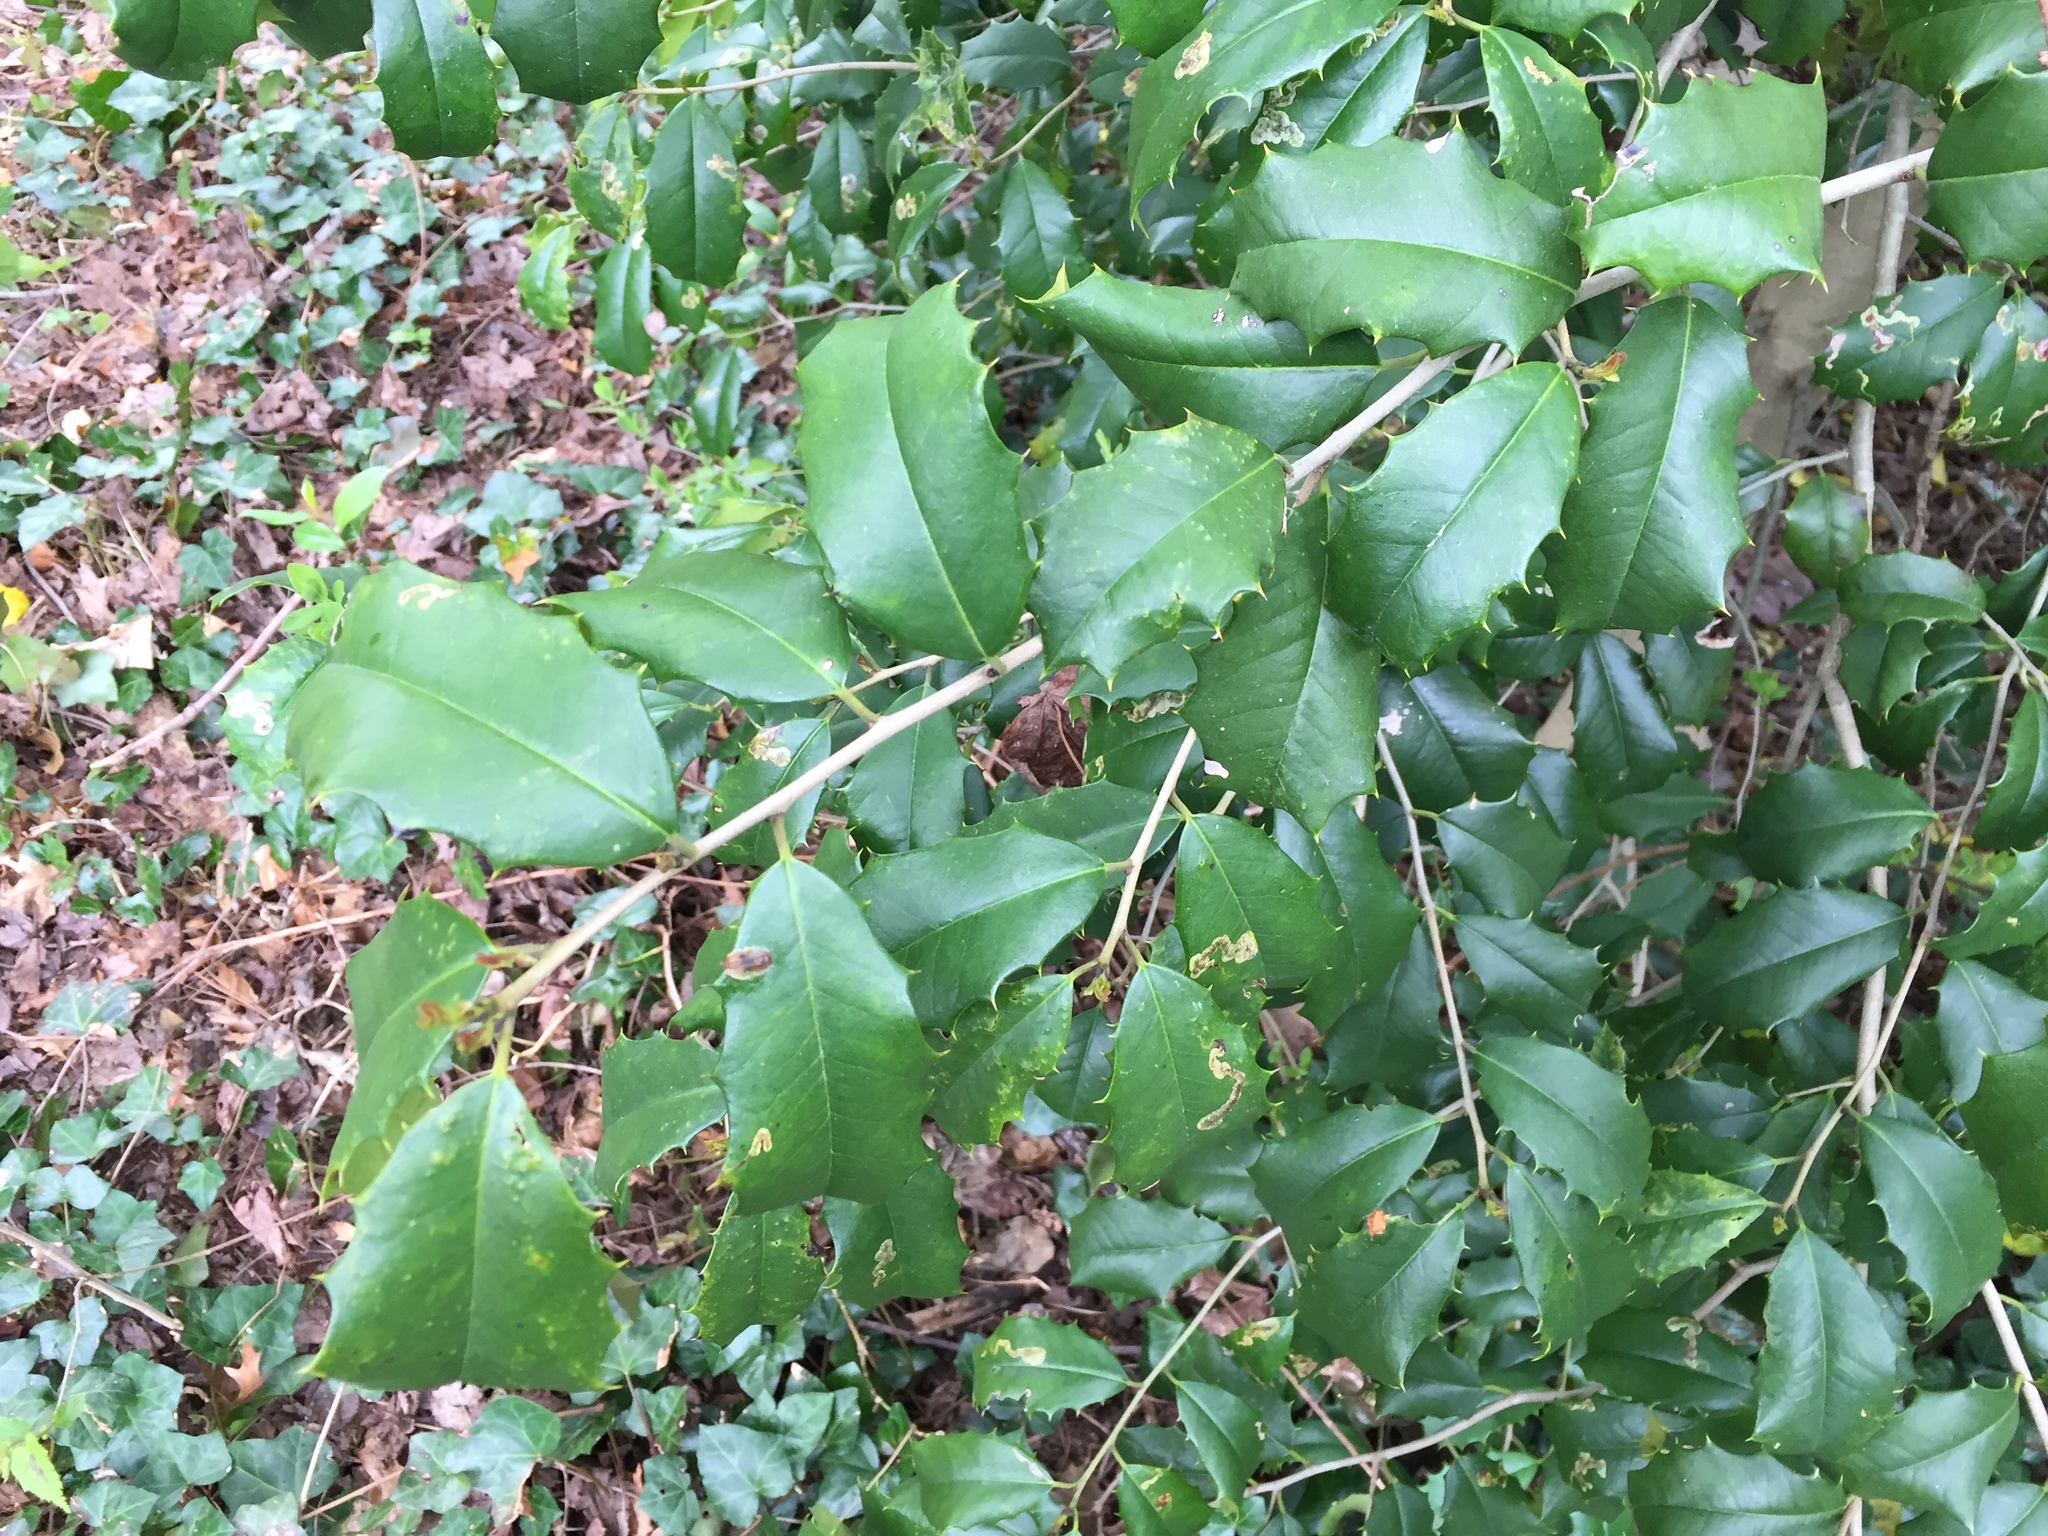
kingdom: Plantae
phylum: Tracheophyta
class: Magnoliopsida
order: Aquifoliales
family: Aquifoliaceae
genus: Ilex
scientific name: Ilex opaca
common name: American holly
